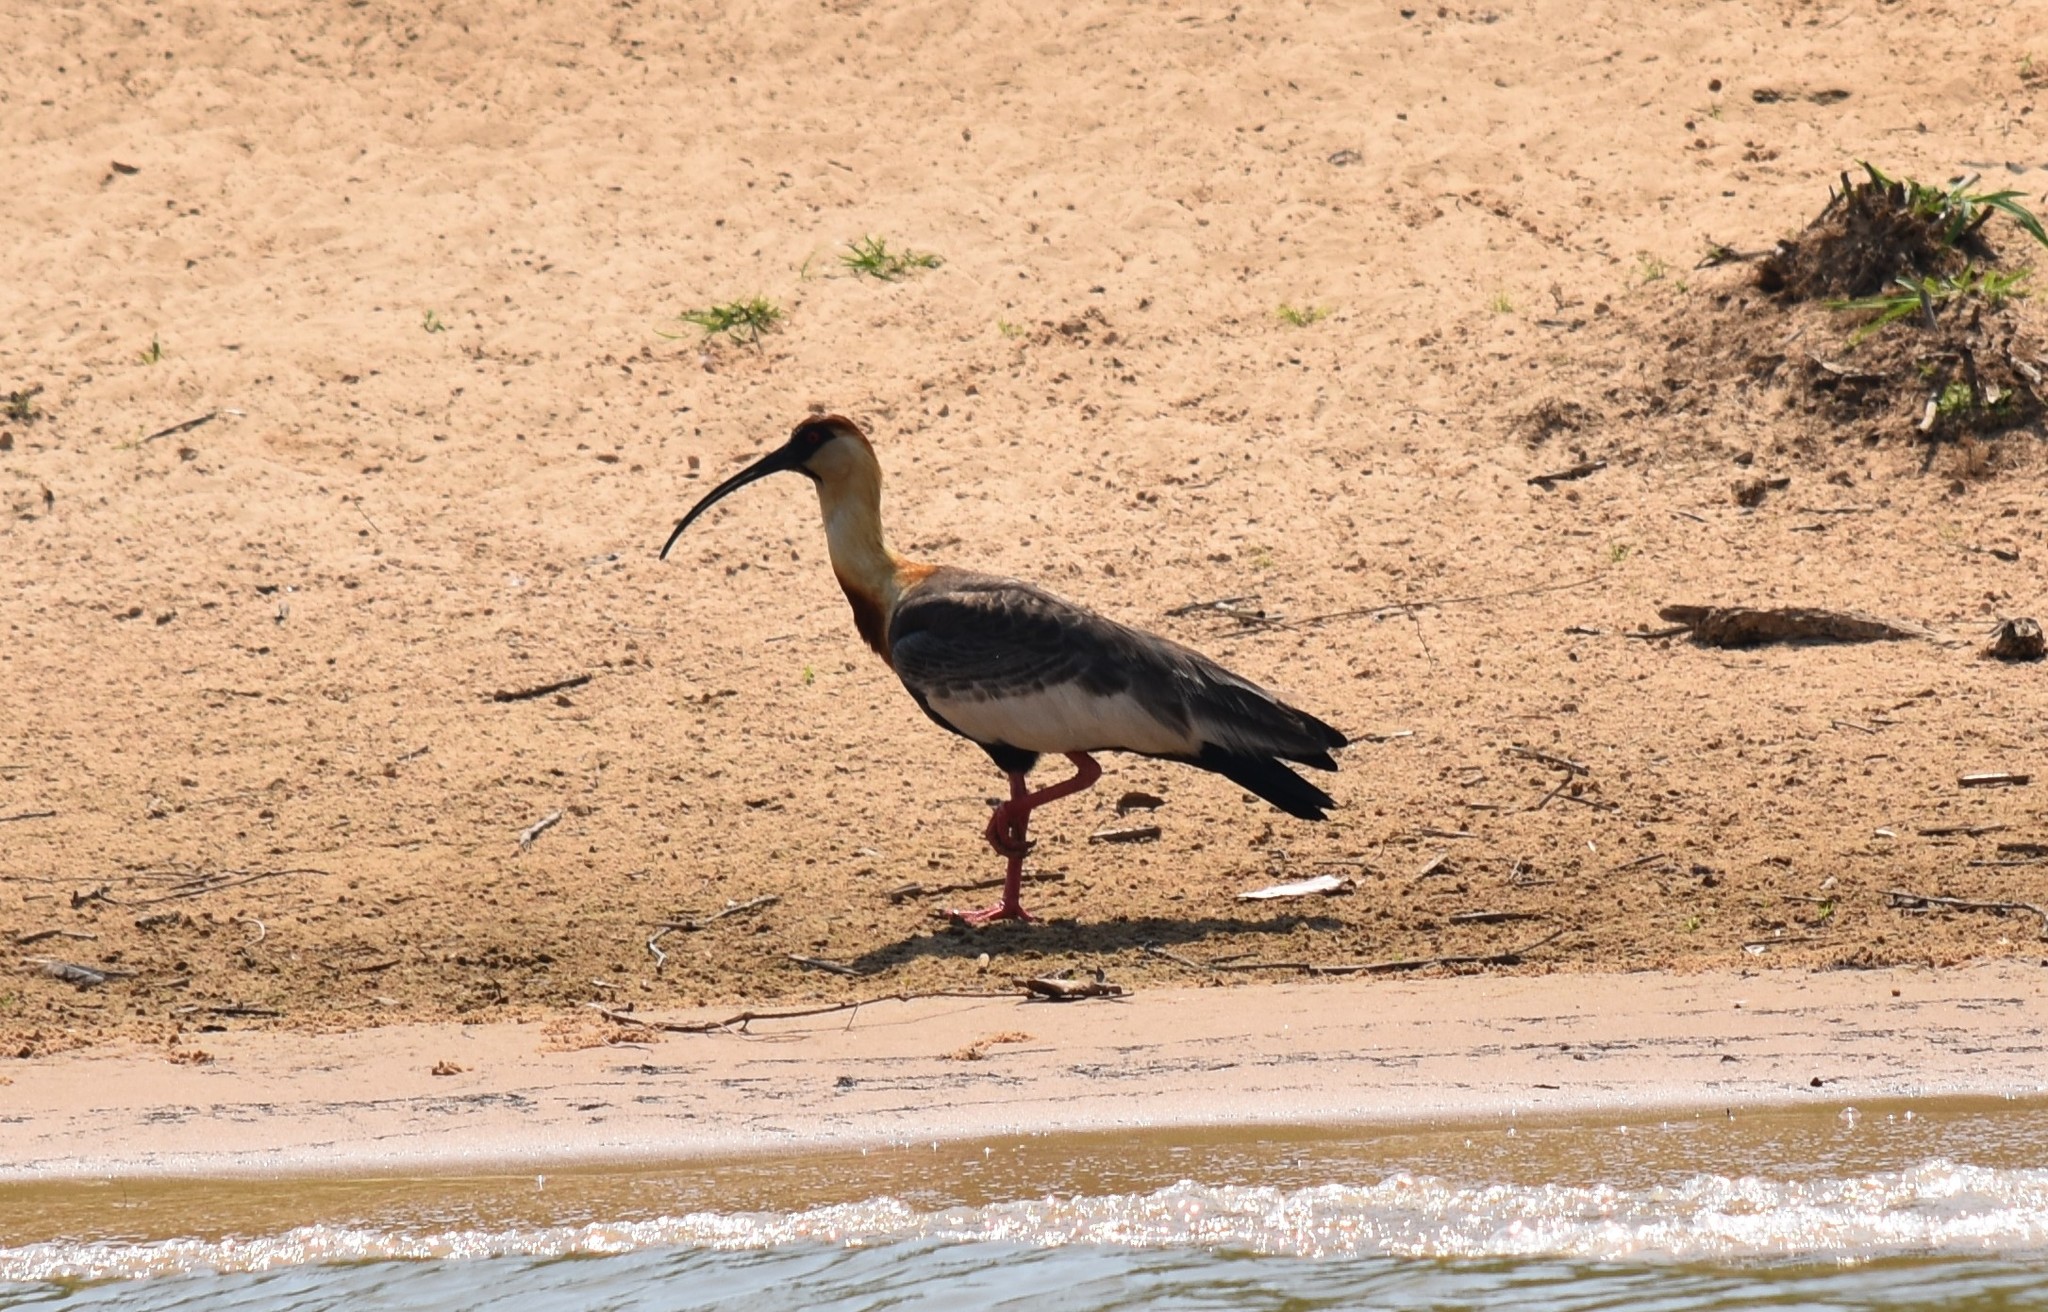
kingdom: Animalia
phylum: Chordata
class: Aves
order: Pelecaniformes
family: Threskiornithidae
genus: Theristicus
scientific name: Theristicus caudatus
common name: Buff-necked ibis
